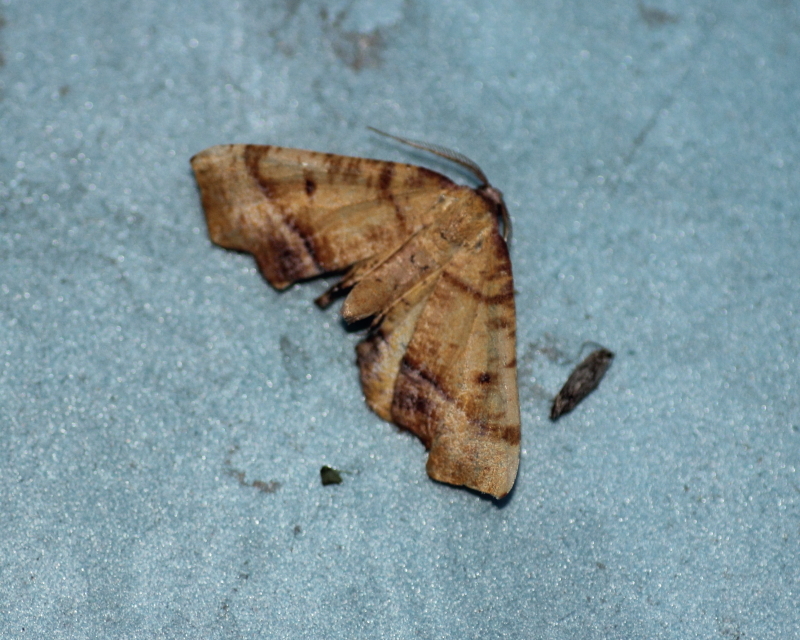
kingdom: Animalia
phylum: Arthropoda
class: Insecta
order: Lepidoptera
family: Geometridae
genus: Plagodis
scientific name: Plagodis phlogosaria
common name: Straight-lined plagodis
